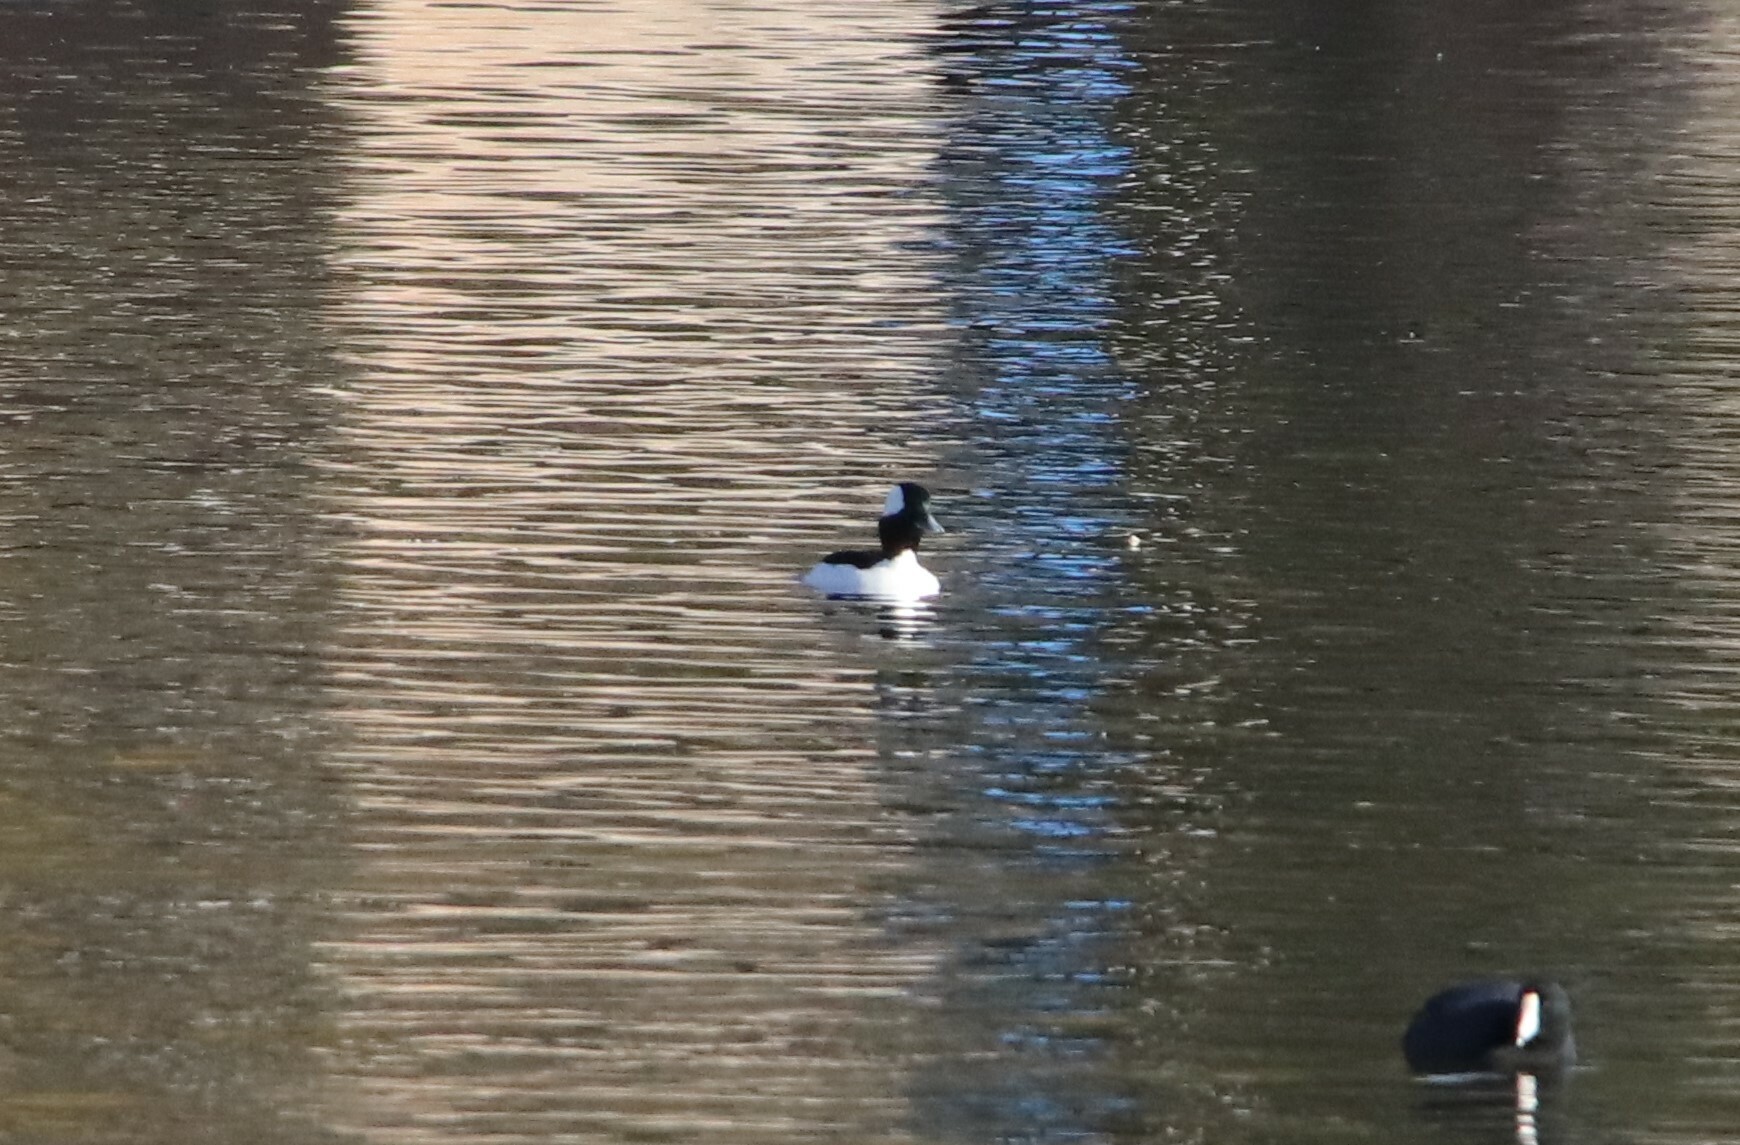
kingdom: Animalia
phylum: Chordata
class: Aves
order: Anseriformes
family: Anatidae
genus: Bucephala
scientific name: Bucephala albeola
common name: Bufflehead
